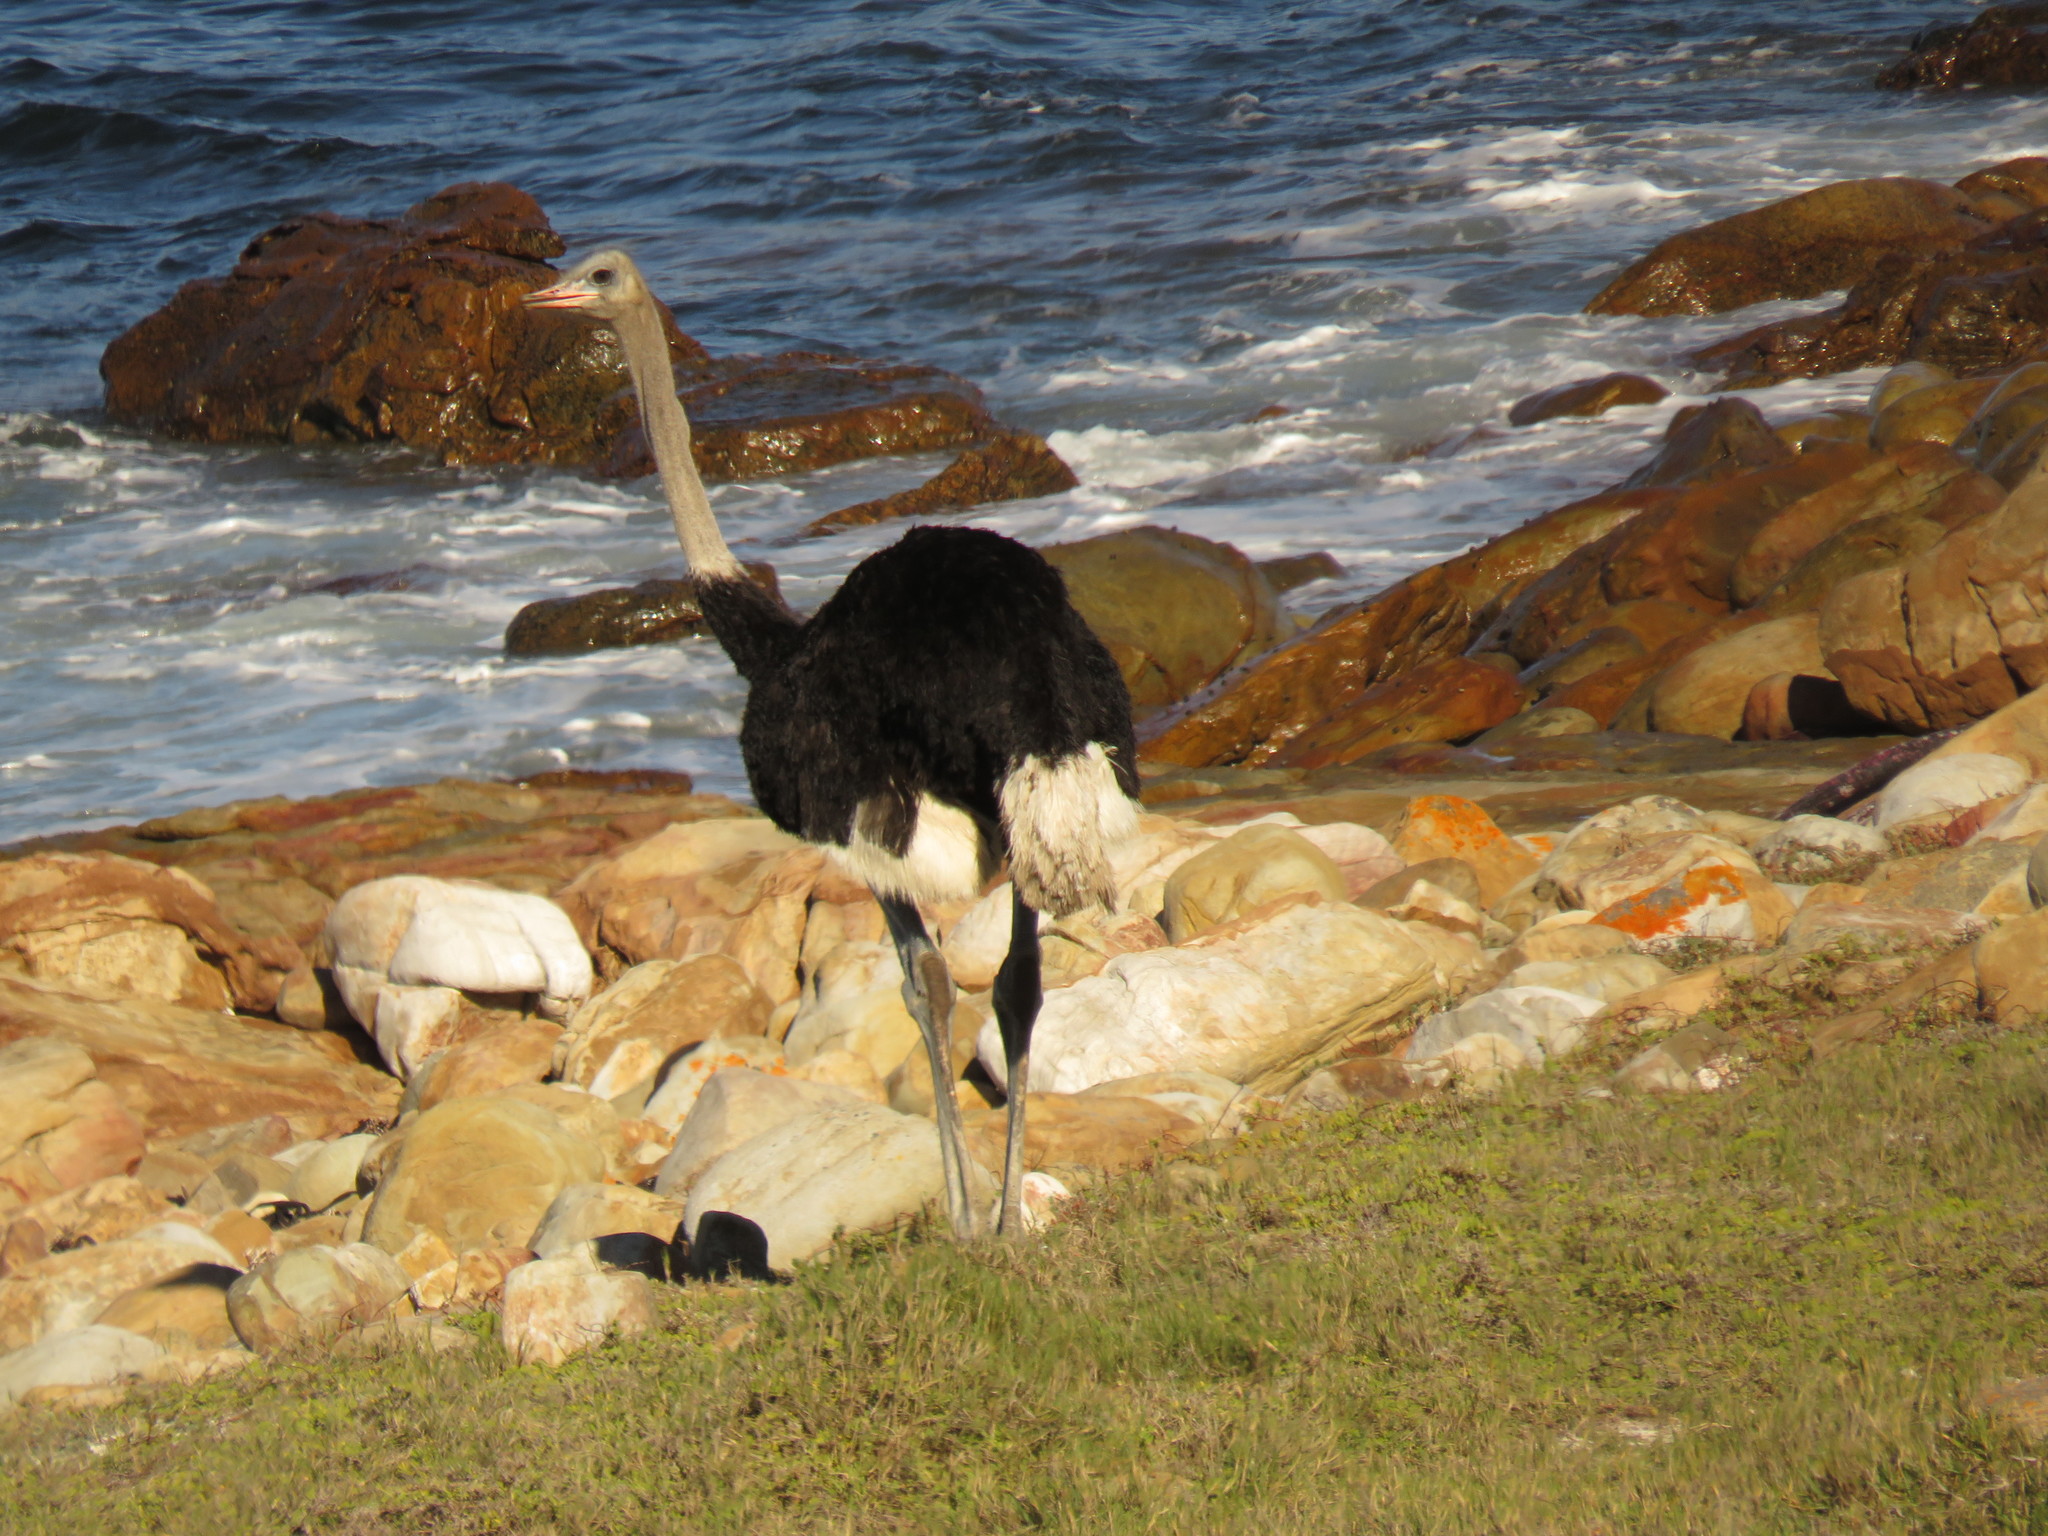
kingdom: Animalia
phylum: Chordata
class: Aves
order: Struthioniformes
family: Struthionidae
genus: Struthio
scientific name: Struthio camelus
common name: Common ostrich
